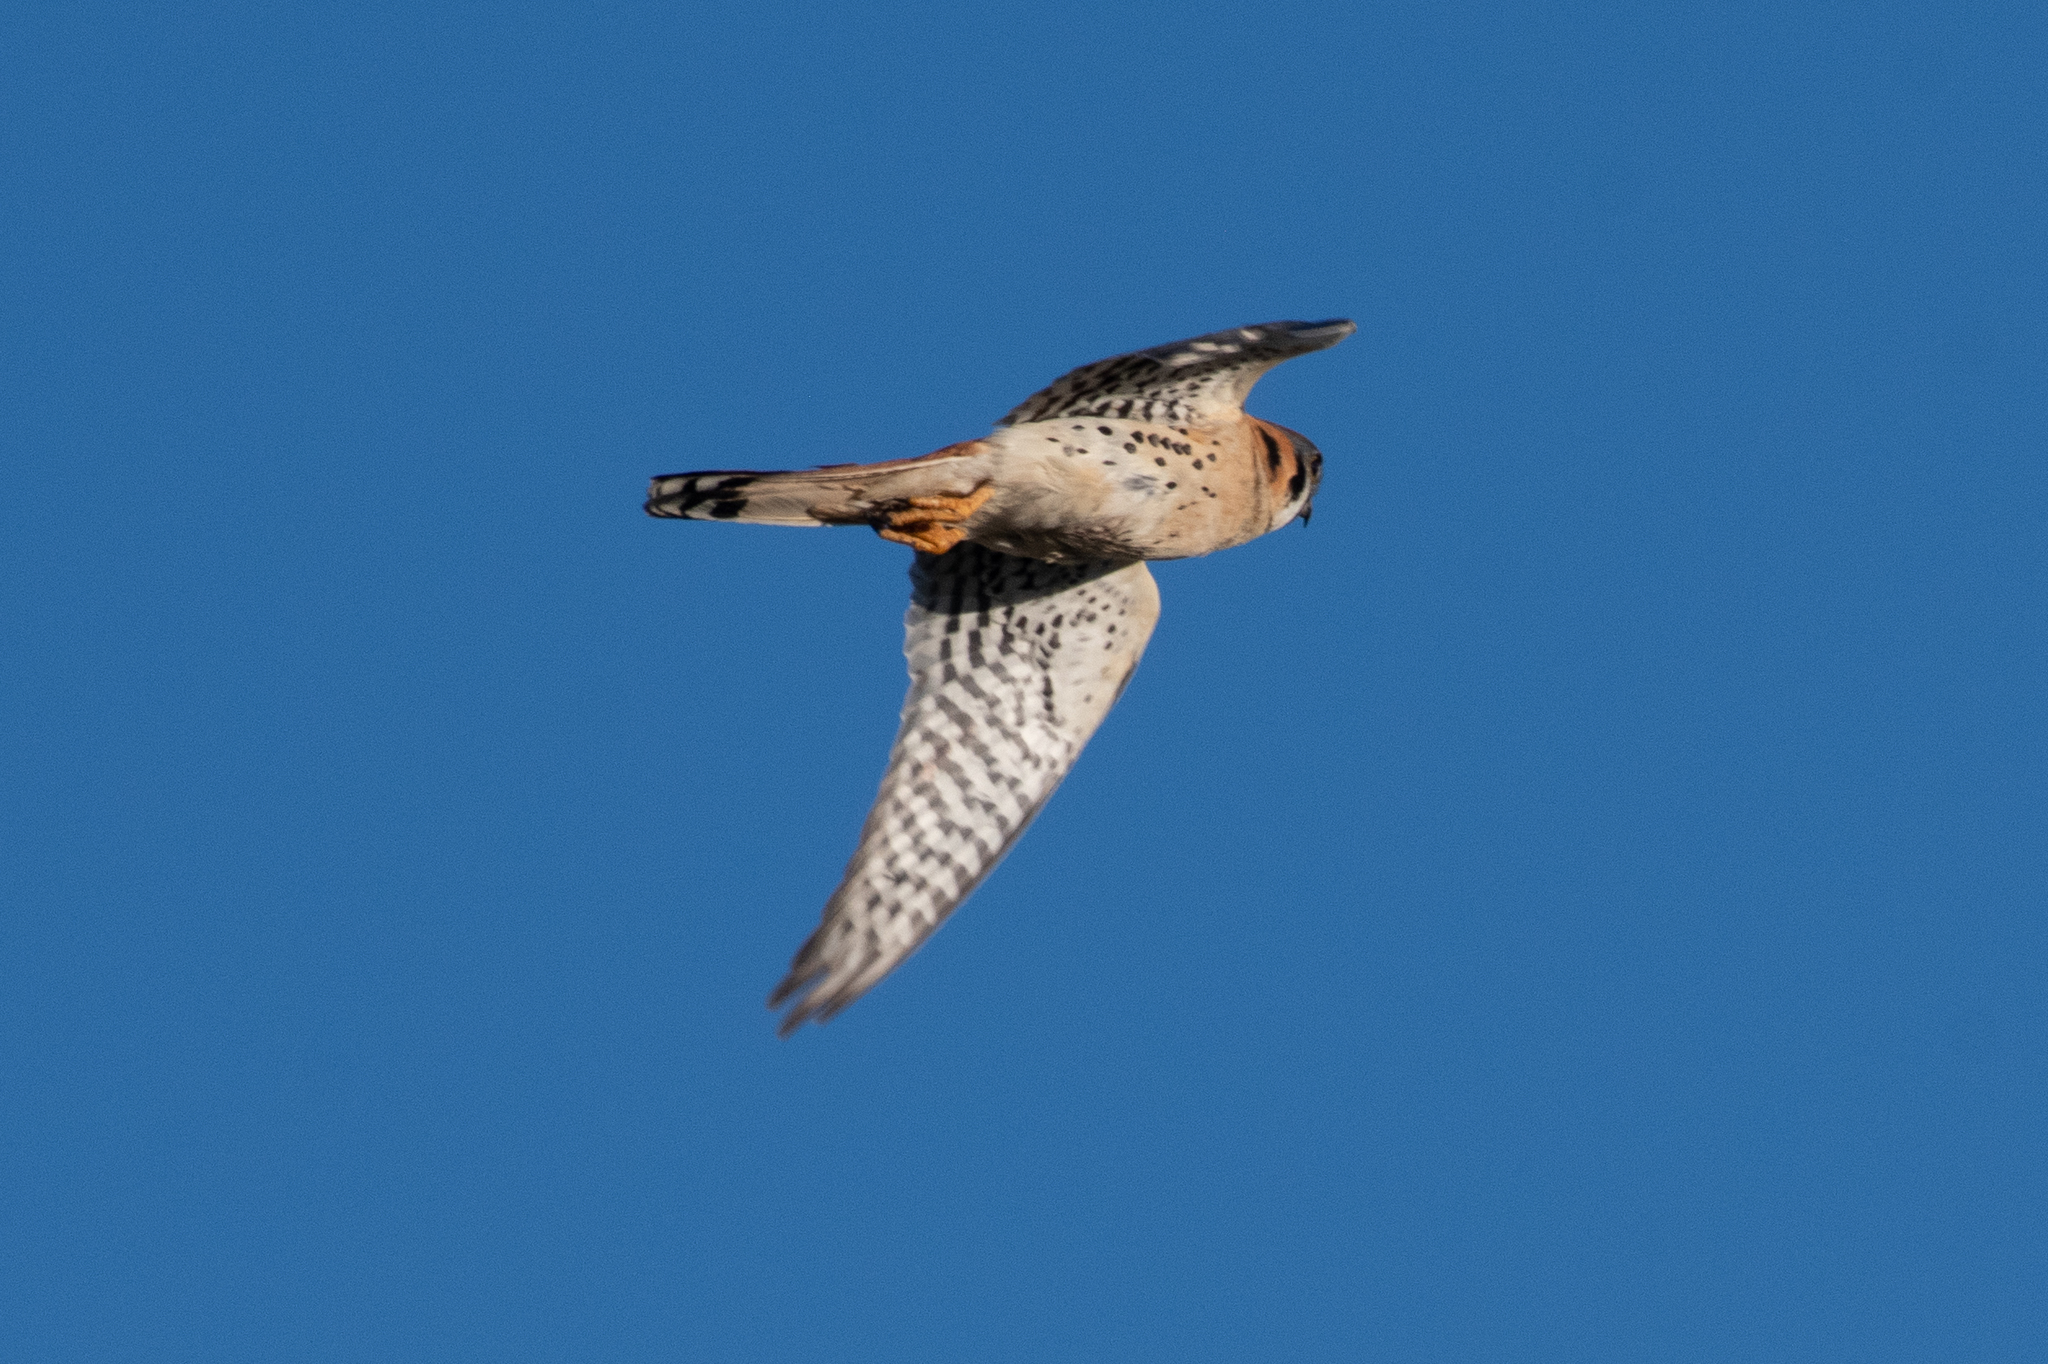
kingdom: Animalia
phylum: Chordata
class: Aves
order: Falconiformes
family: Falconidae
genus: Falco
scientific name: Falco sparverius
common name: American kestrel
